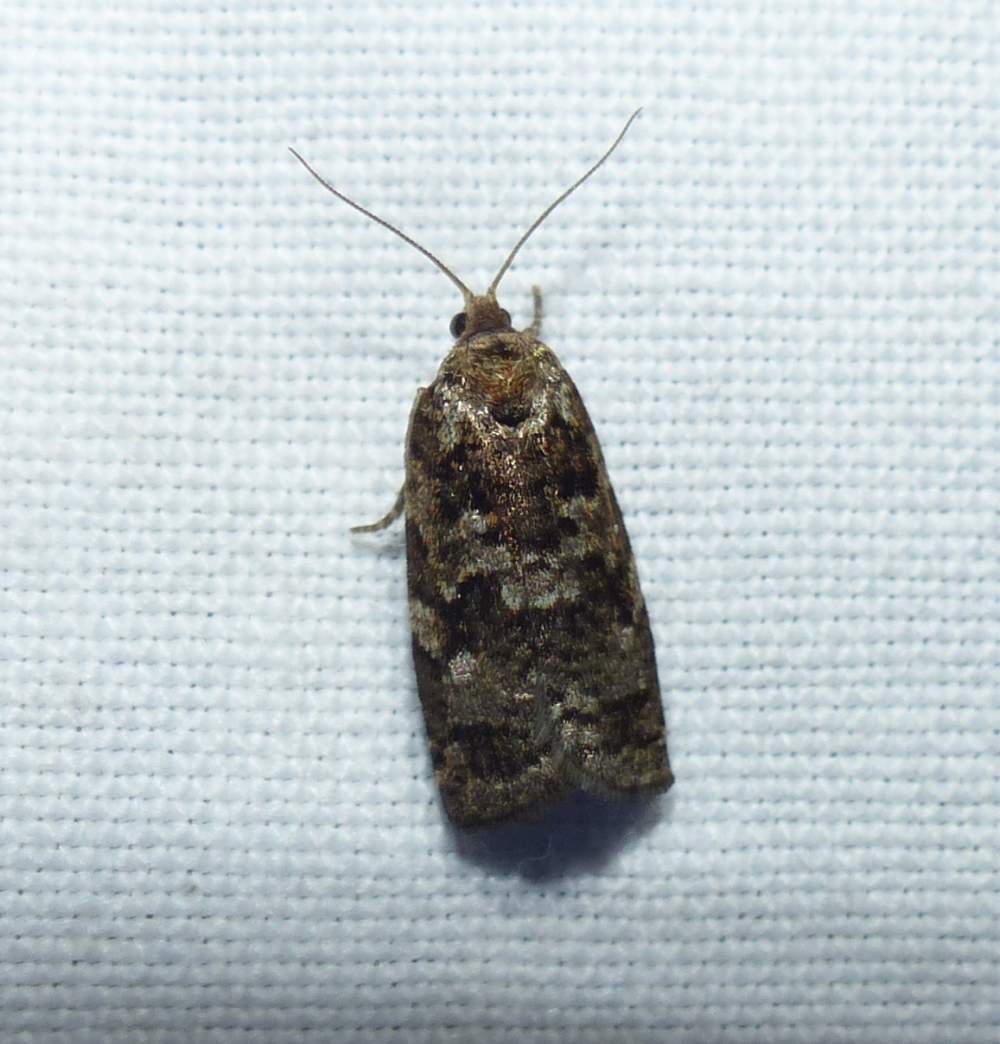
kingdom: Animalia
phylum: Arthropoda
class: Insecta
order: Lepidoptera
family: Tortricidae
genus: Choristoneura
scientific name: Choristoneura fumiferana
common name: Spruce budworm
